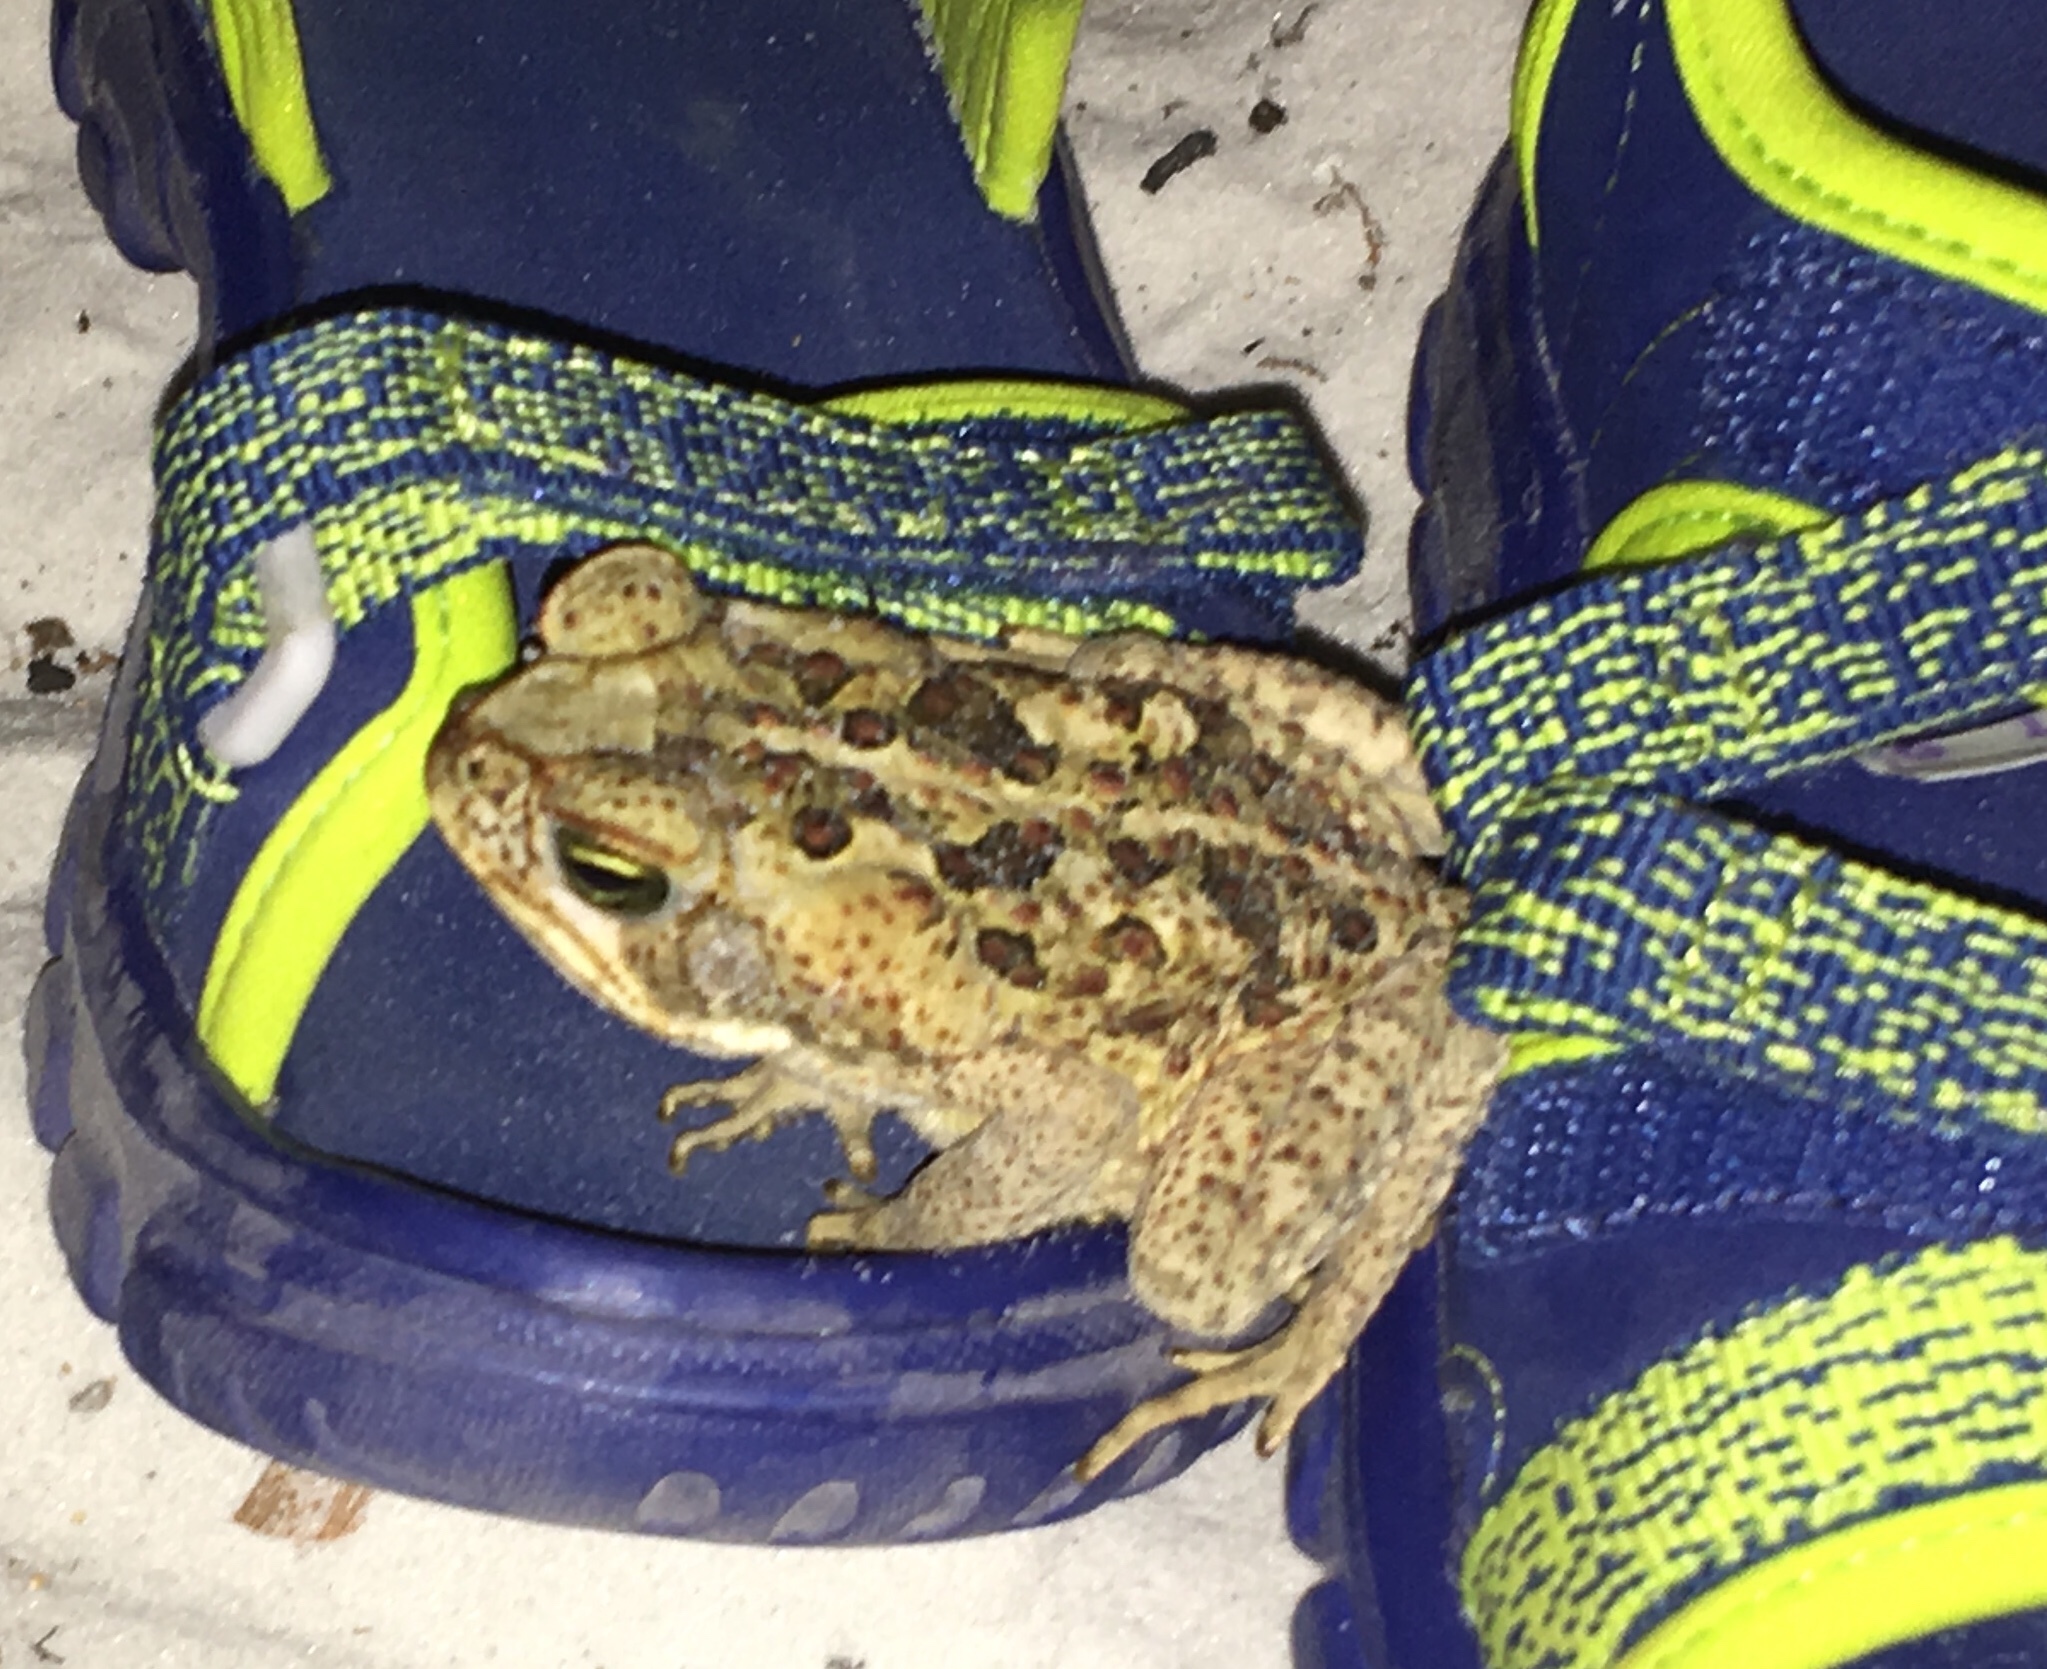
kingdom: Animalia
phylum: Chordata
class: Amphibia
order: Anura
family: Bufonidae
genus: Rhinella
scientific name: Rhinella marina
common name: Cane toad
